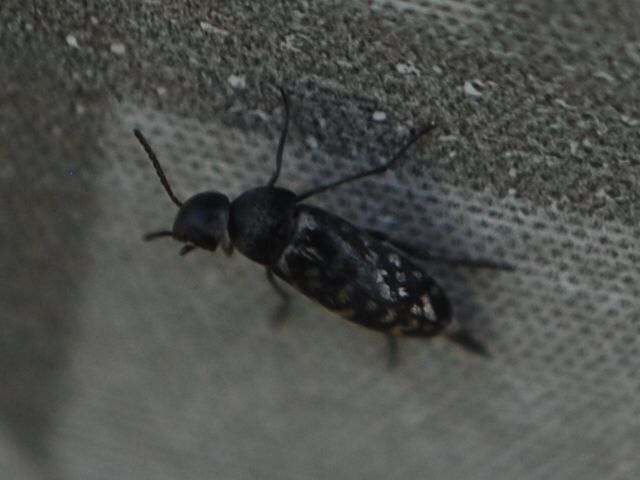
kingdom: Animalia
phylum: Arthropoda
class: Insecta
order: Coleoptera
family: Mordellidae
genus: Mordellina
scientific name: Mordellina pustulata
